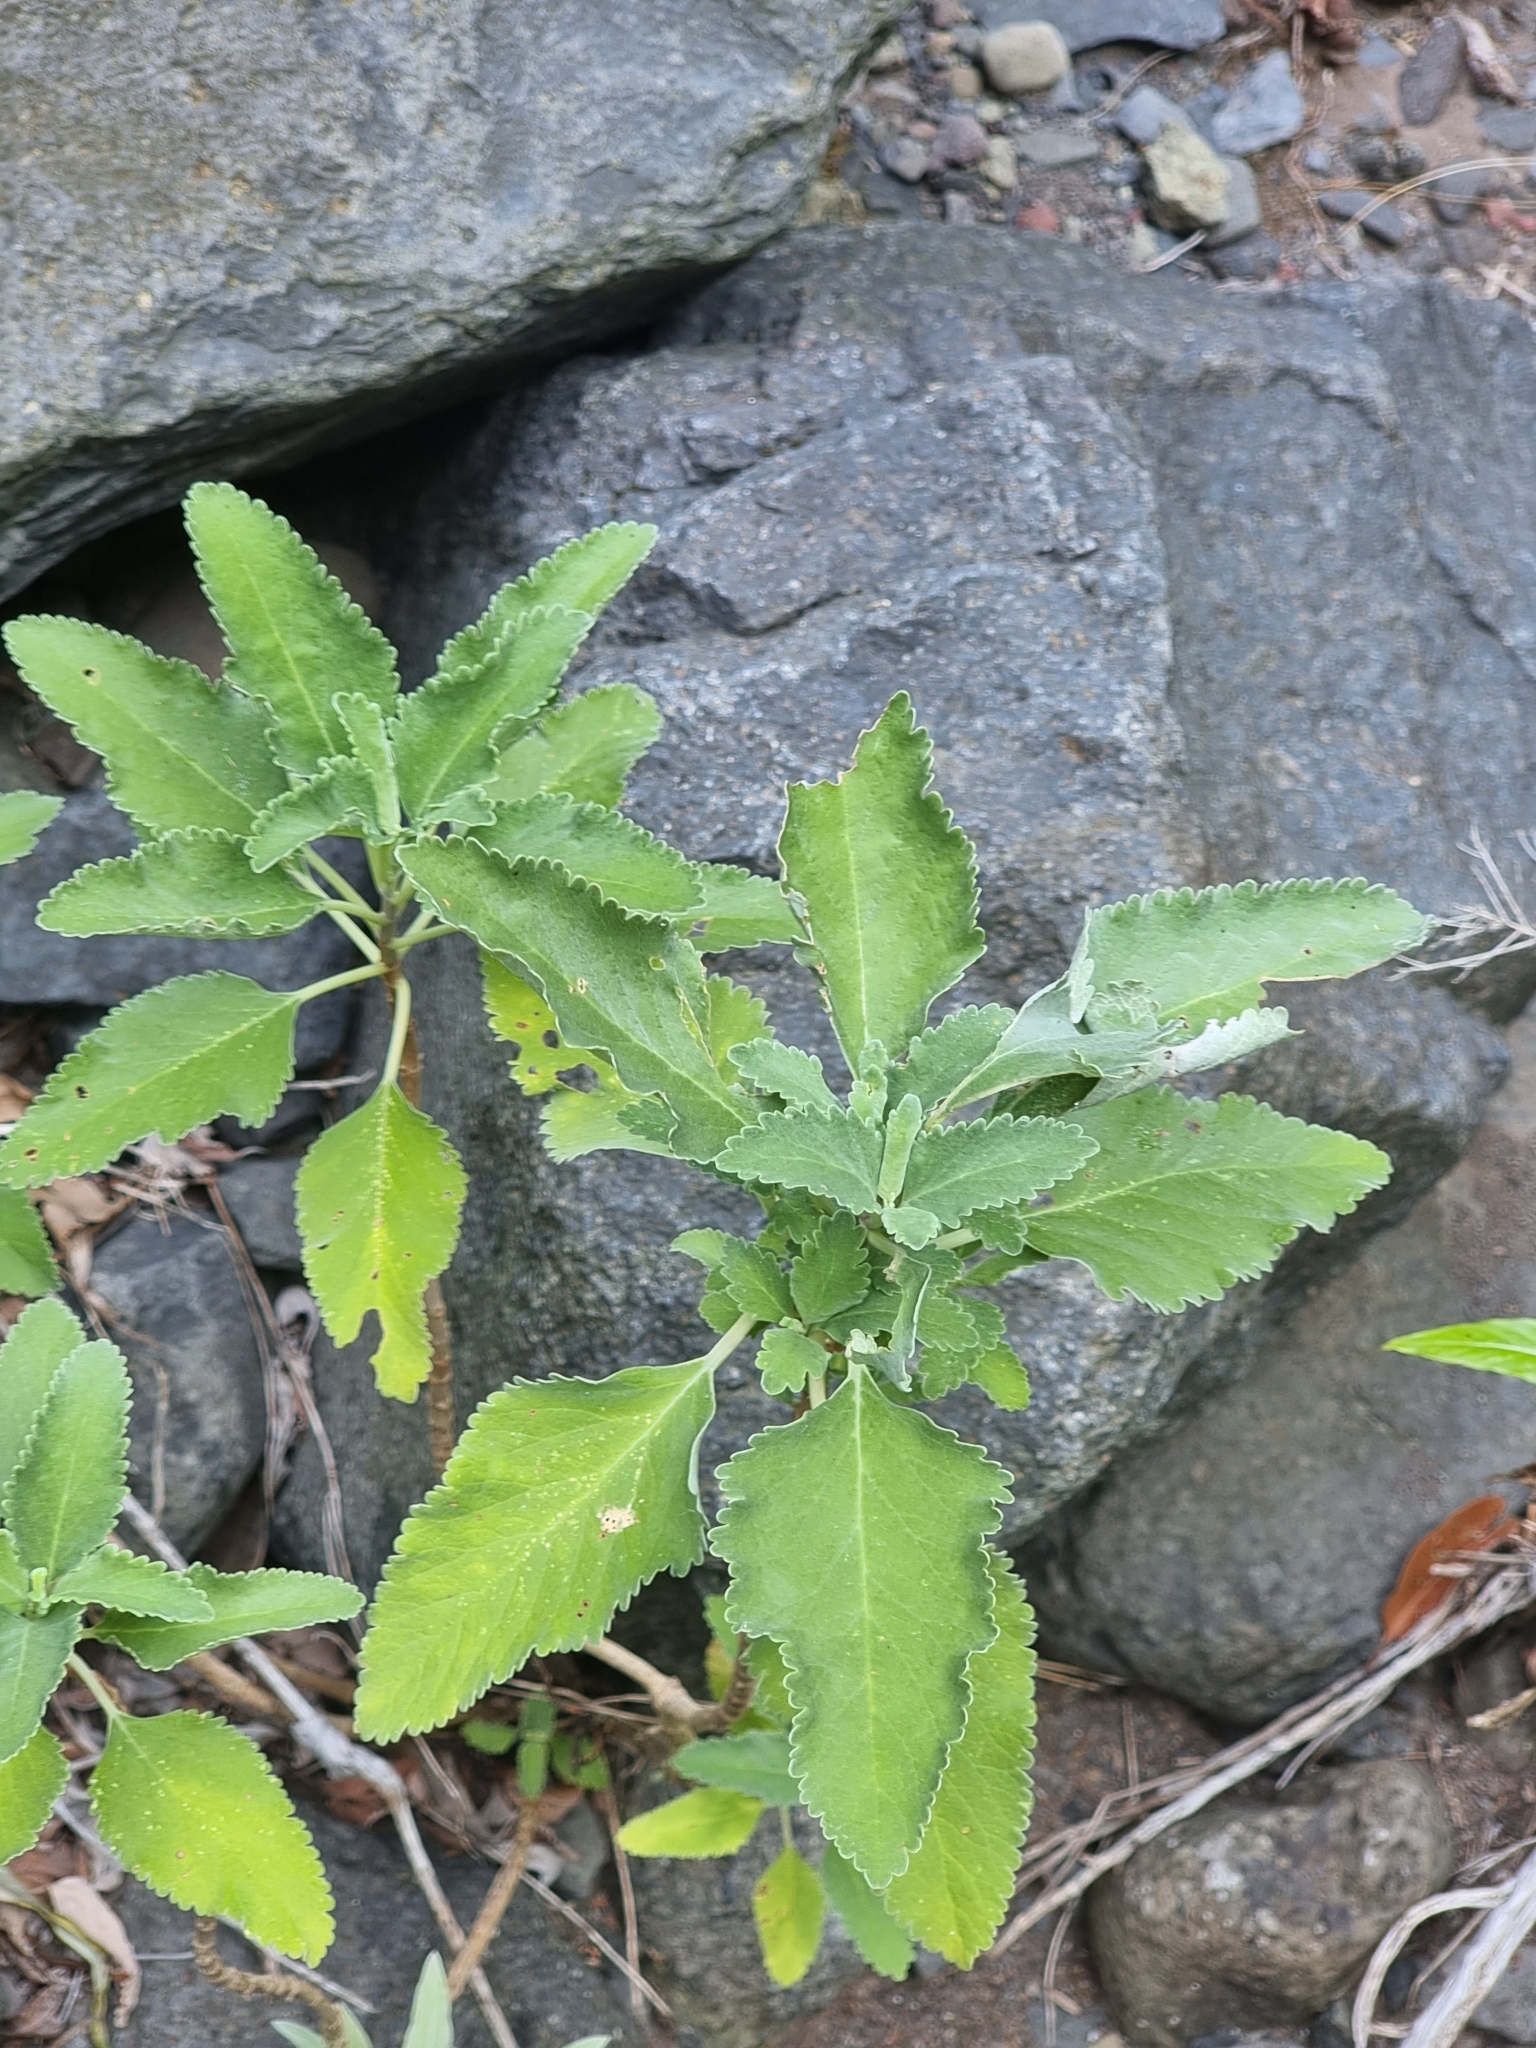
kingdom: Plantae
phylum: Tracheophyta
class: Magnoliopsida
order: Lamiales
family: Lamiaceae
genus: Teucrium
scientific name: Teucrium betonicum
